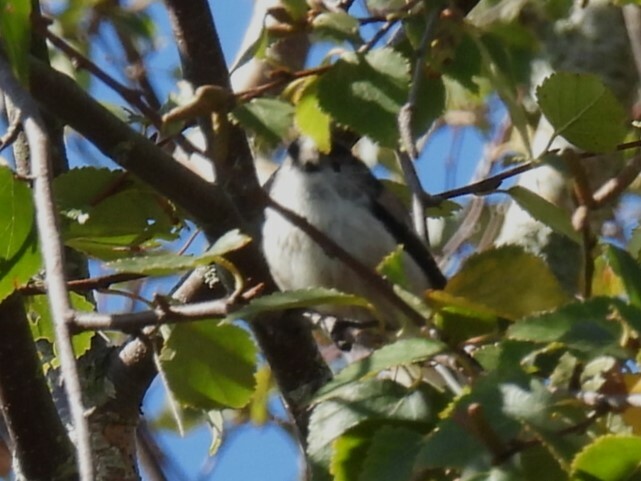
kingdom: Animalia
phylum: Chordata
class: Aves
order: Passeriformes
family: Aegithalidae
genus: Aegithalos
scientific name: Aegithalos caudatus
